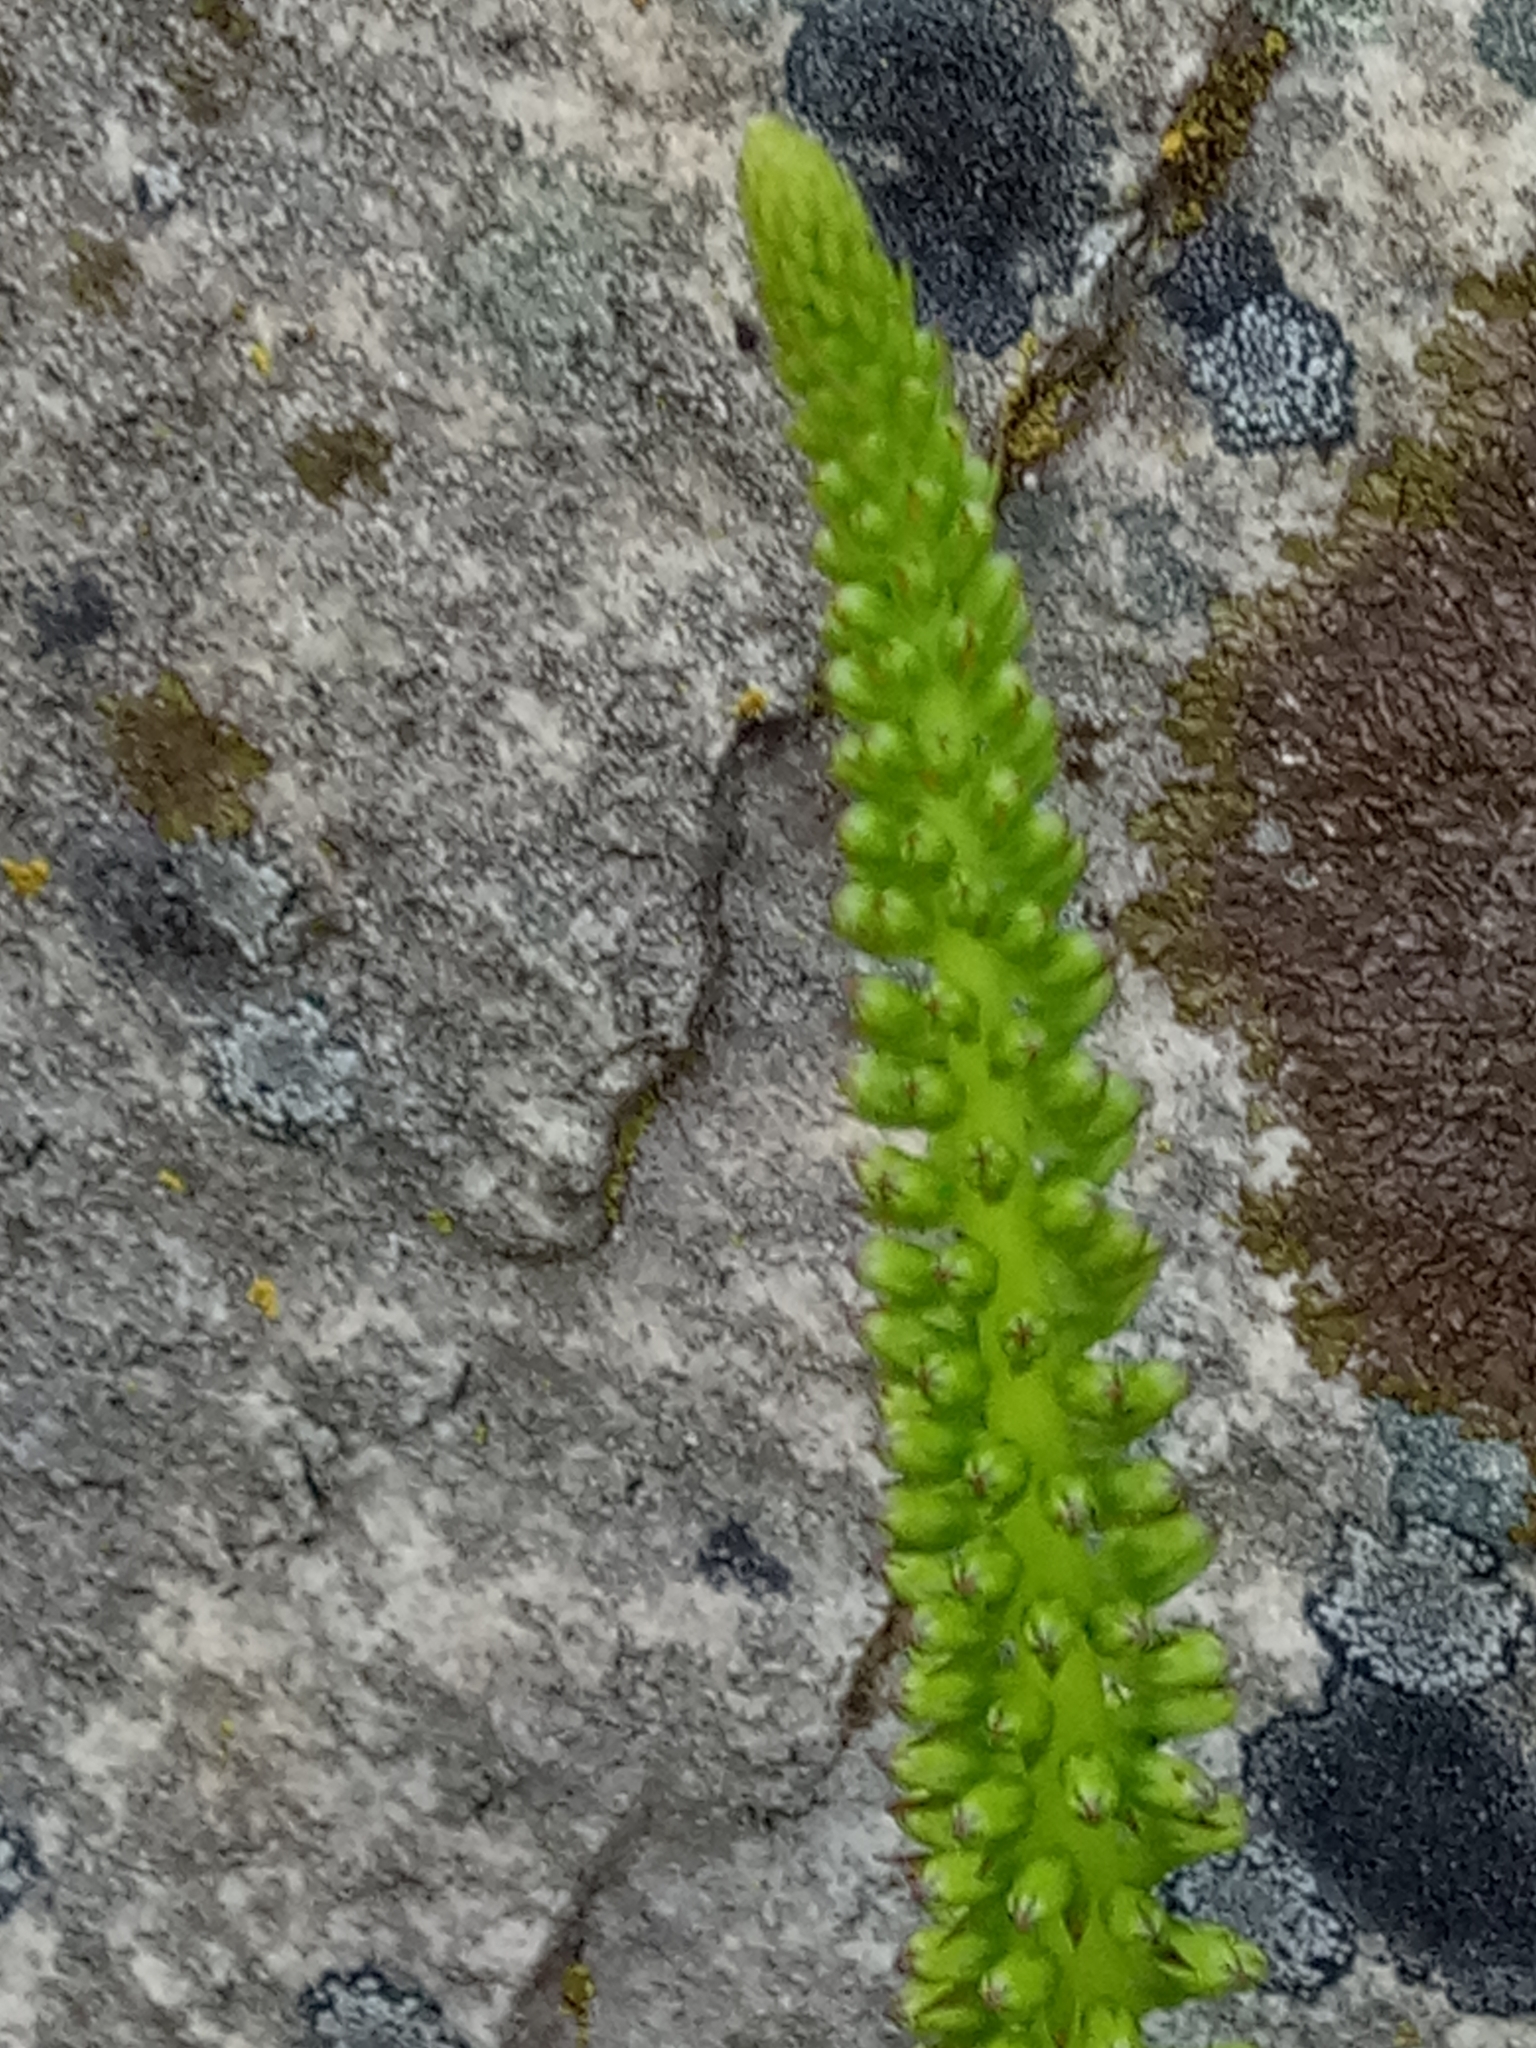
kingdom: Plantae
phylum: Tracheophyta
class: Magnoliopsida
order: Saxifragales
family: Crassulaceae
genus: Umbilicus
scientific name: Umbilicus rupestris
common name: Navelwort
